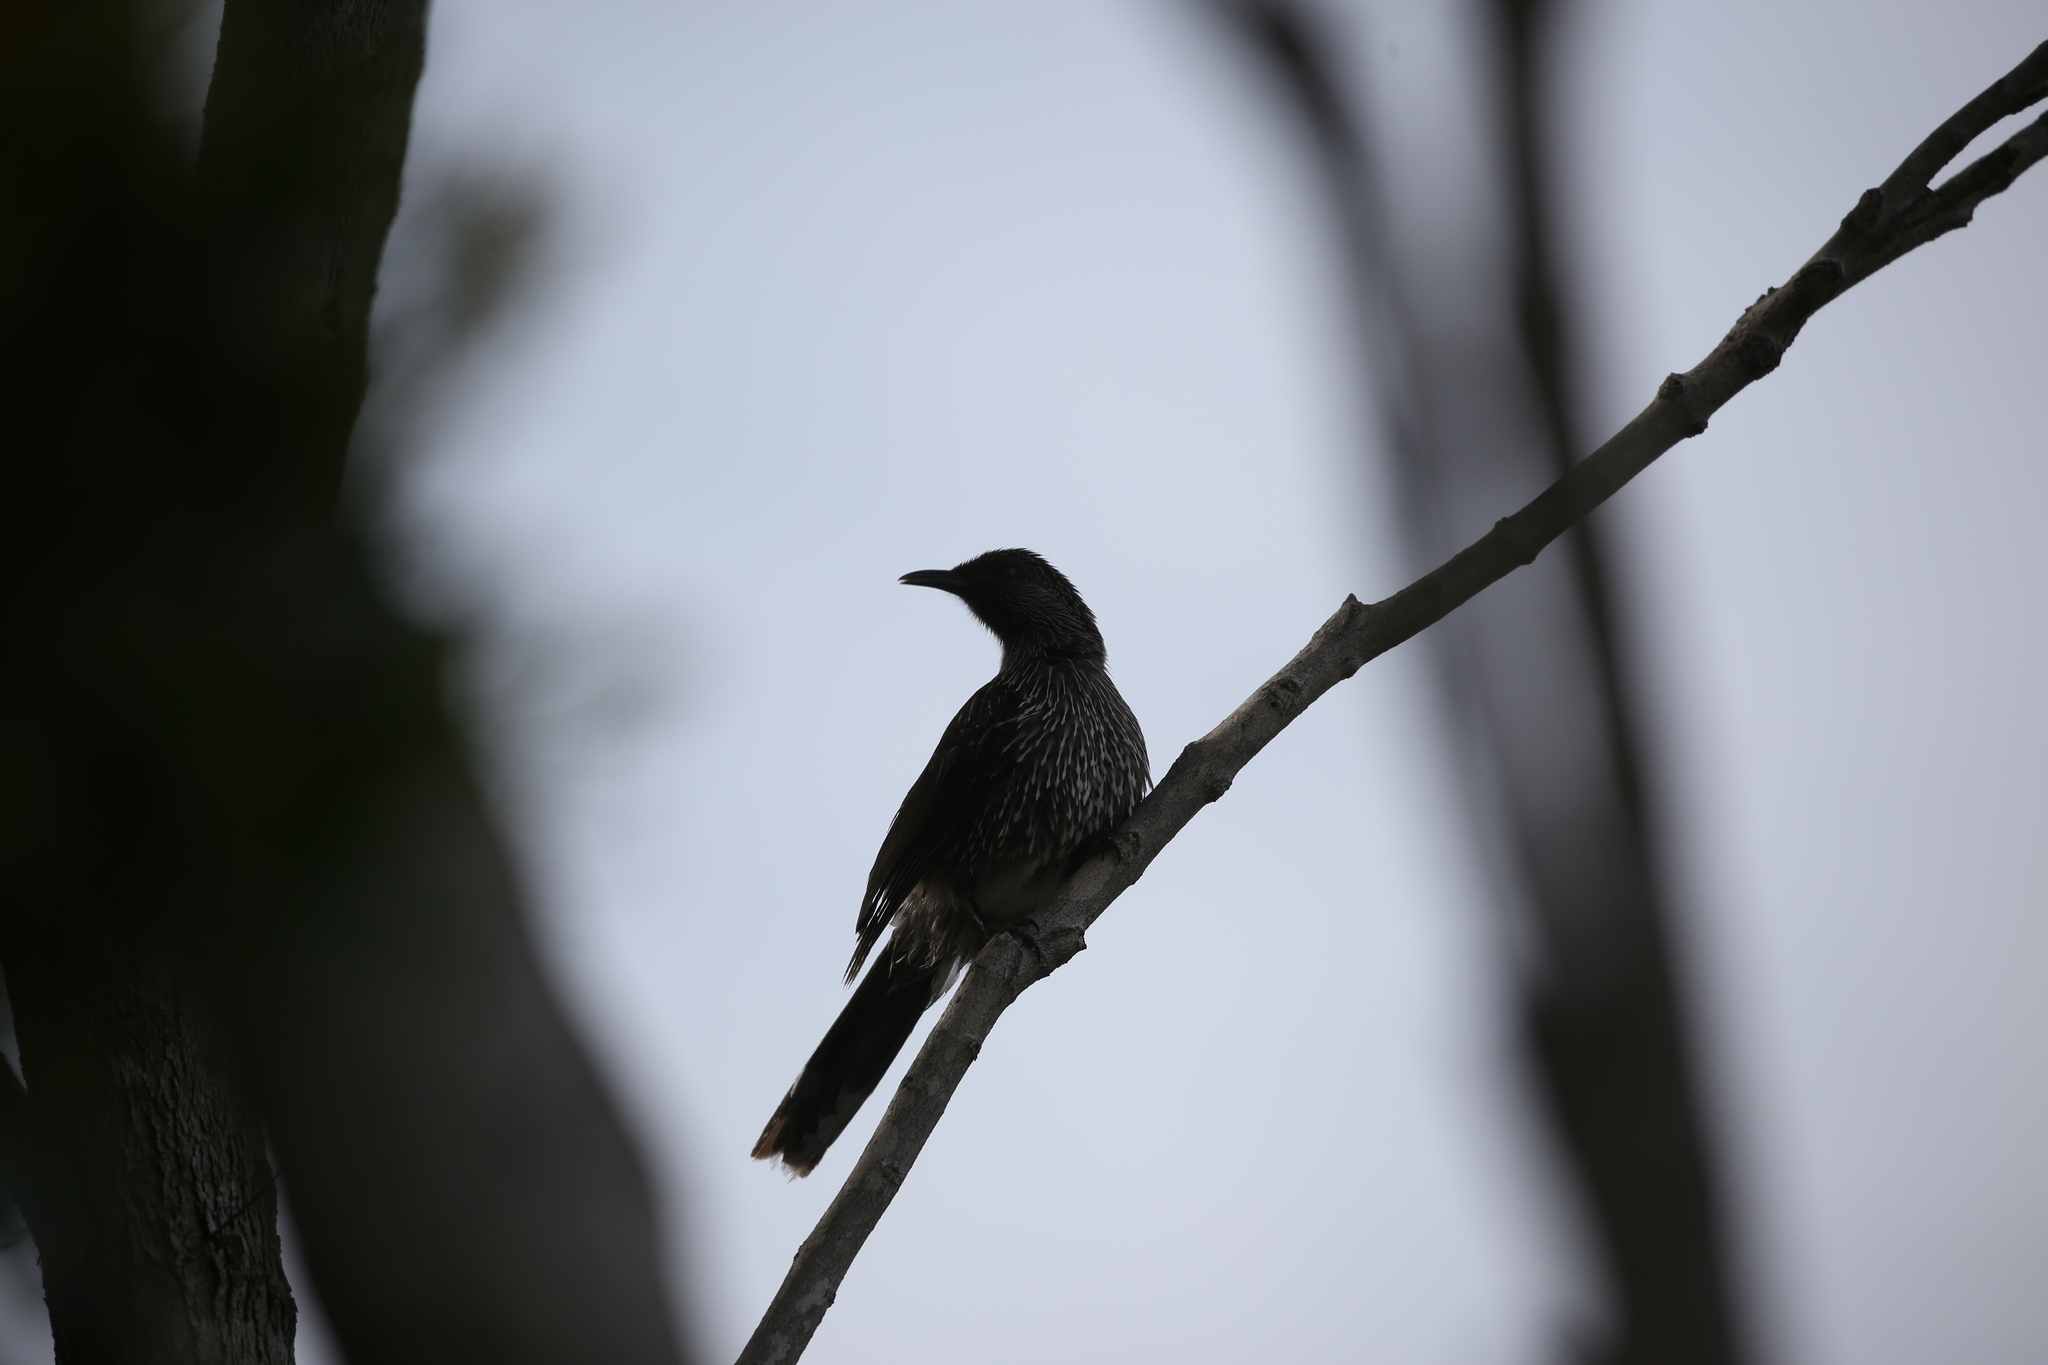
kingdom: Animalia
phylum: Chordata
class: Aves
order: Passeriformes
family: Meliphagidae
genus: Anthochaera
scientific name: Anthochaera chrysoptera
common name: Little wattlebird
